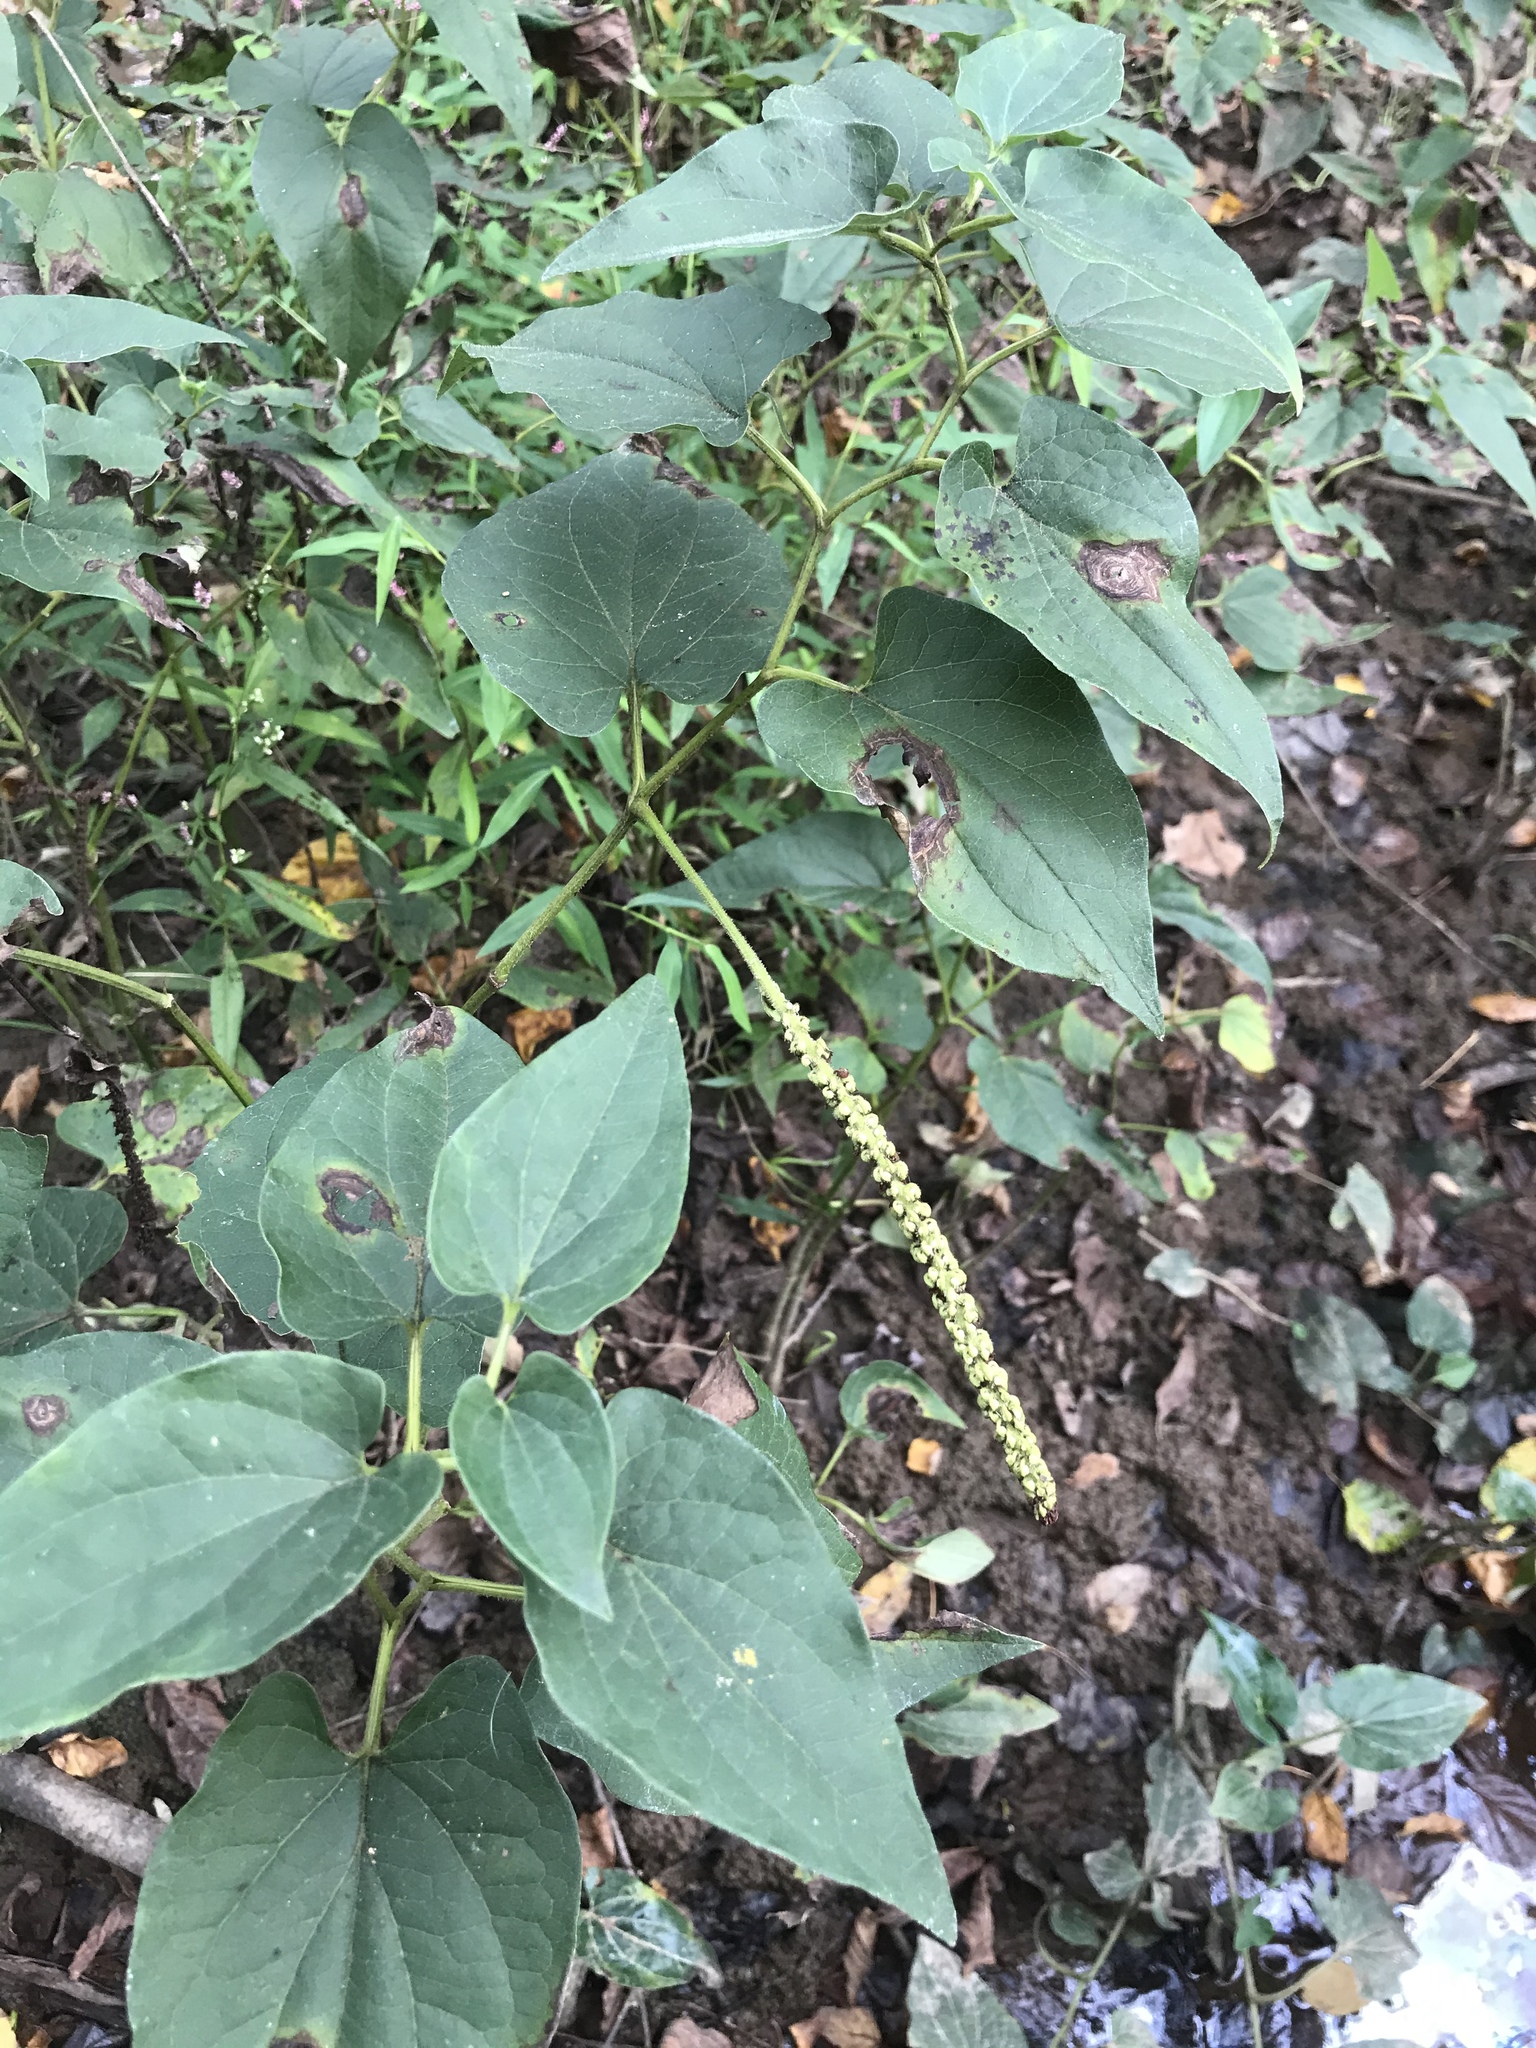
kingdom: Plantae
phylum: Tracheophyta
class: Magnoliopsida
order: Piperales
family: Saururaceae
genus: Saururus
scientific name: Saururus cernuus
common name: Lizard's-tail
